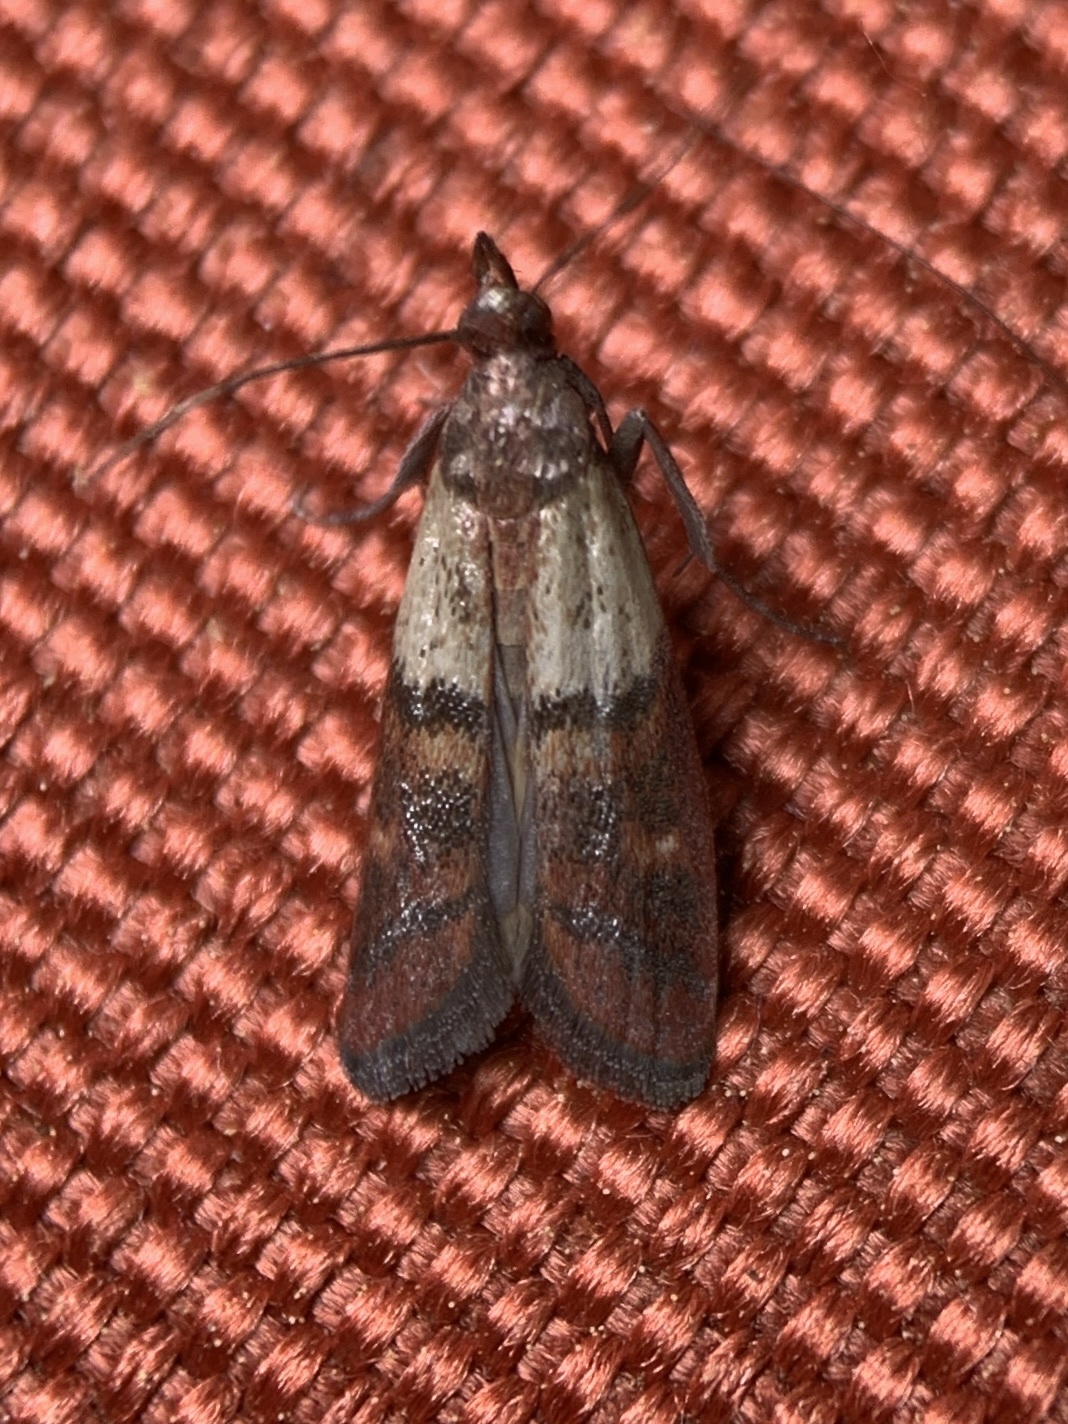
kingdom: Animalia
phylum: Arthropoda
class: Insecta
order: Lepidoptera
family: Pyralidae
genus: Plodia
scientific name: Plodia interpunctella
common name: Indian meal moth
